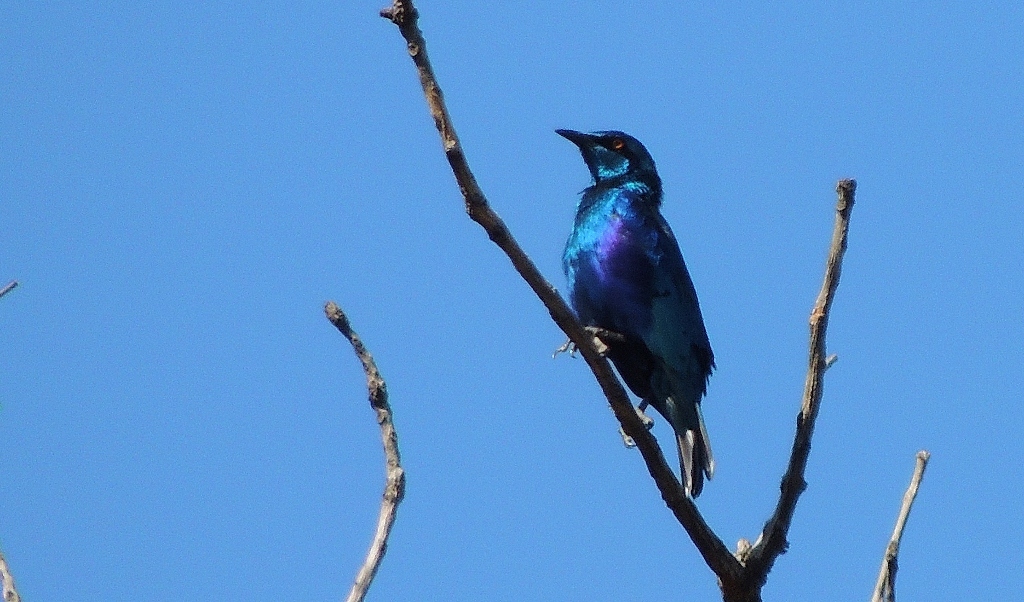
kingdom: Animalia
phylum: Chordata
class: Aves
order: Passeriformes
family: Sturnidae
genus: Lamprotornis
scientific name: Lamprotornis chloropterus
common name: Lesser blue-eared starling
